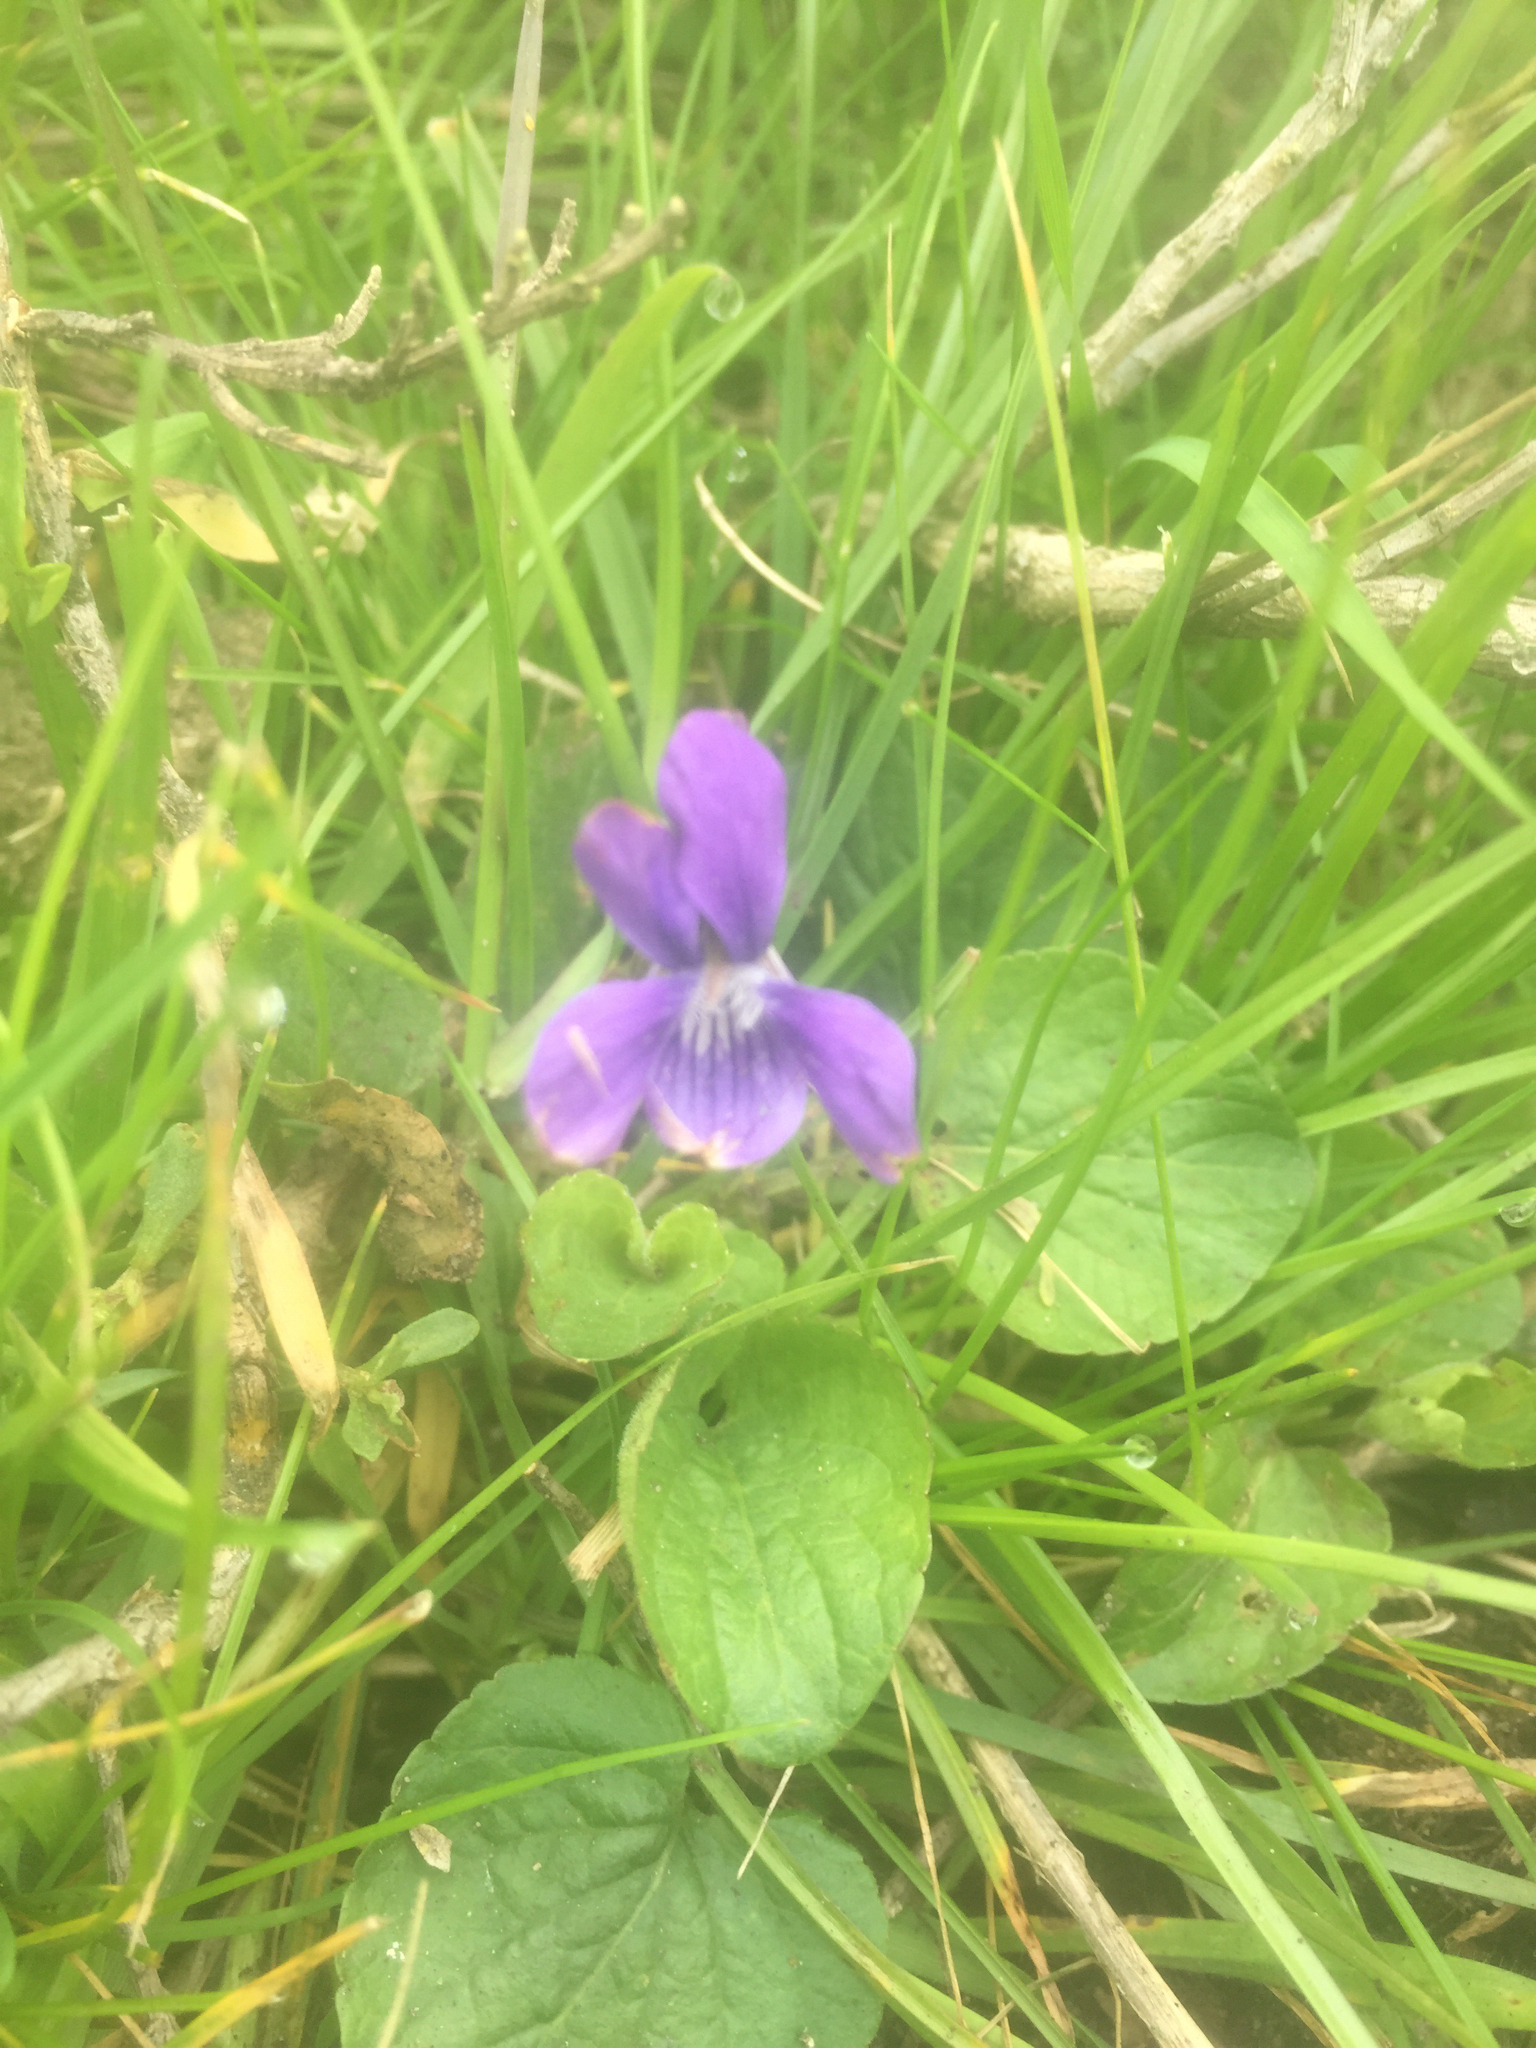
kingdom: Plantae
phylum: Tracheophyta
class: Magnoliopsida
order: Malpighiales
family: Violaceae
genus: Viola
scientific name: Viola adunca
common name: Sand violet
